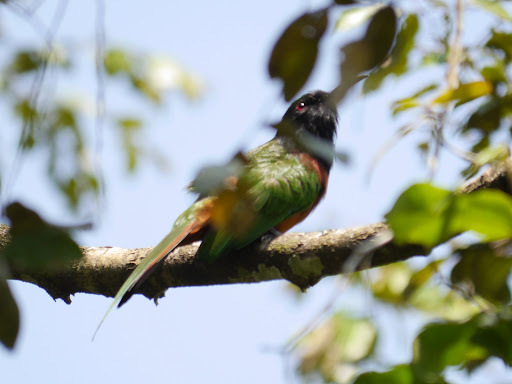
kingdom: Animalia
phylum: Chordata
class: Aves
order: Coraciiformes
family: Meropidae
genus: Merops
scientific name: Merops breweri
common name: Black-headed bee-eater
